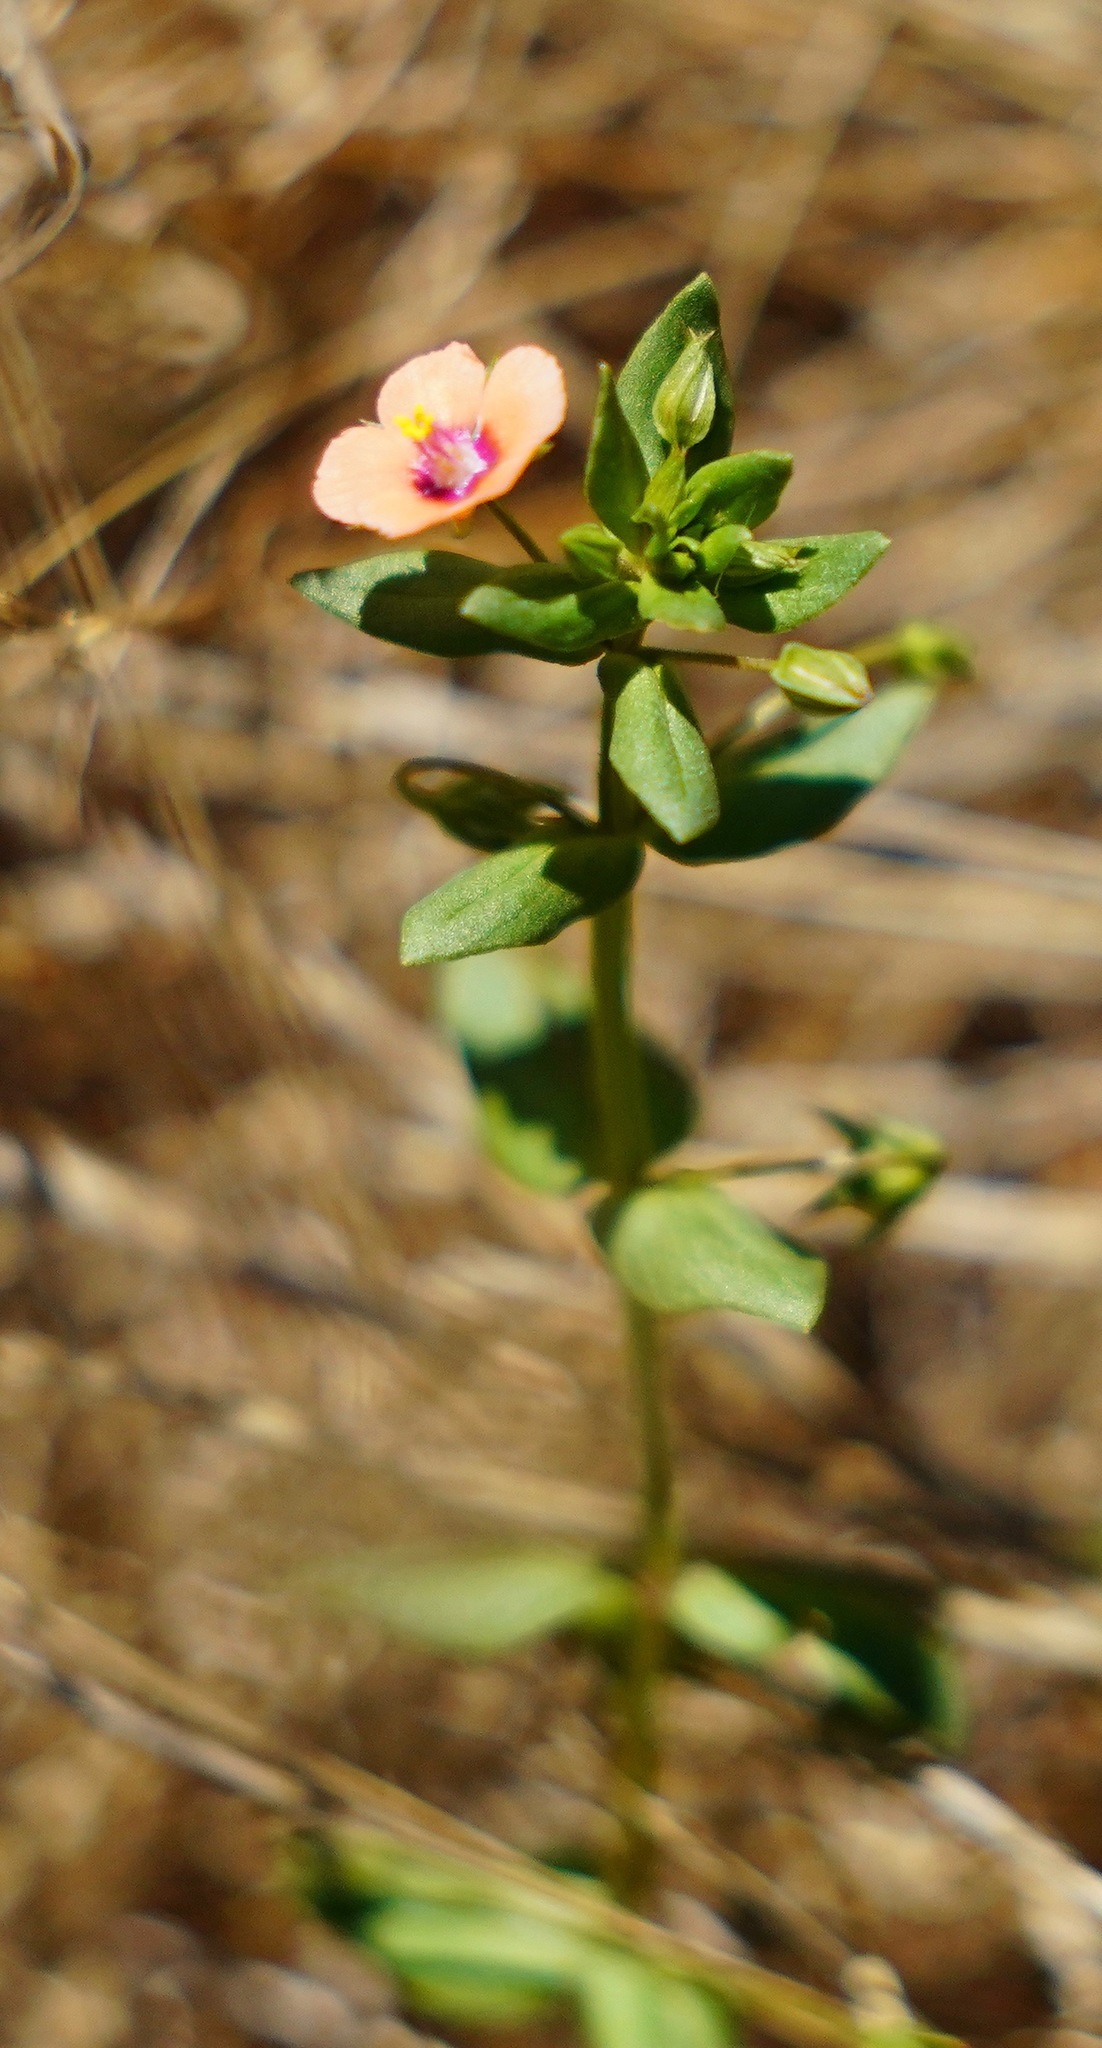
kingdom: Plantae
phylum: Tracheophyta
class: Magnoliopsida
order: Ericales
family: Primulaceae
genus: Lysimachia
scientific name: Lysimachia arvensis
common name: Scarlet pimpernel
